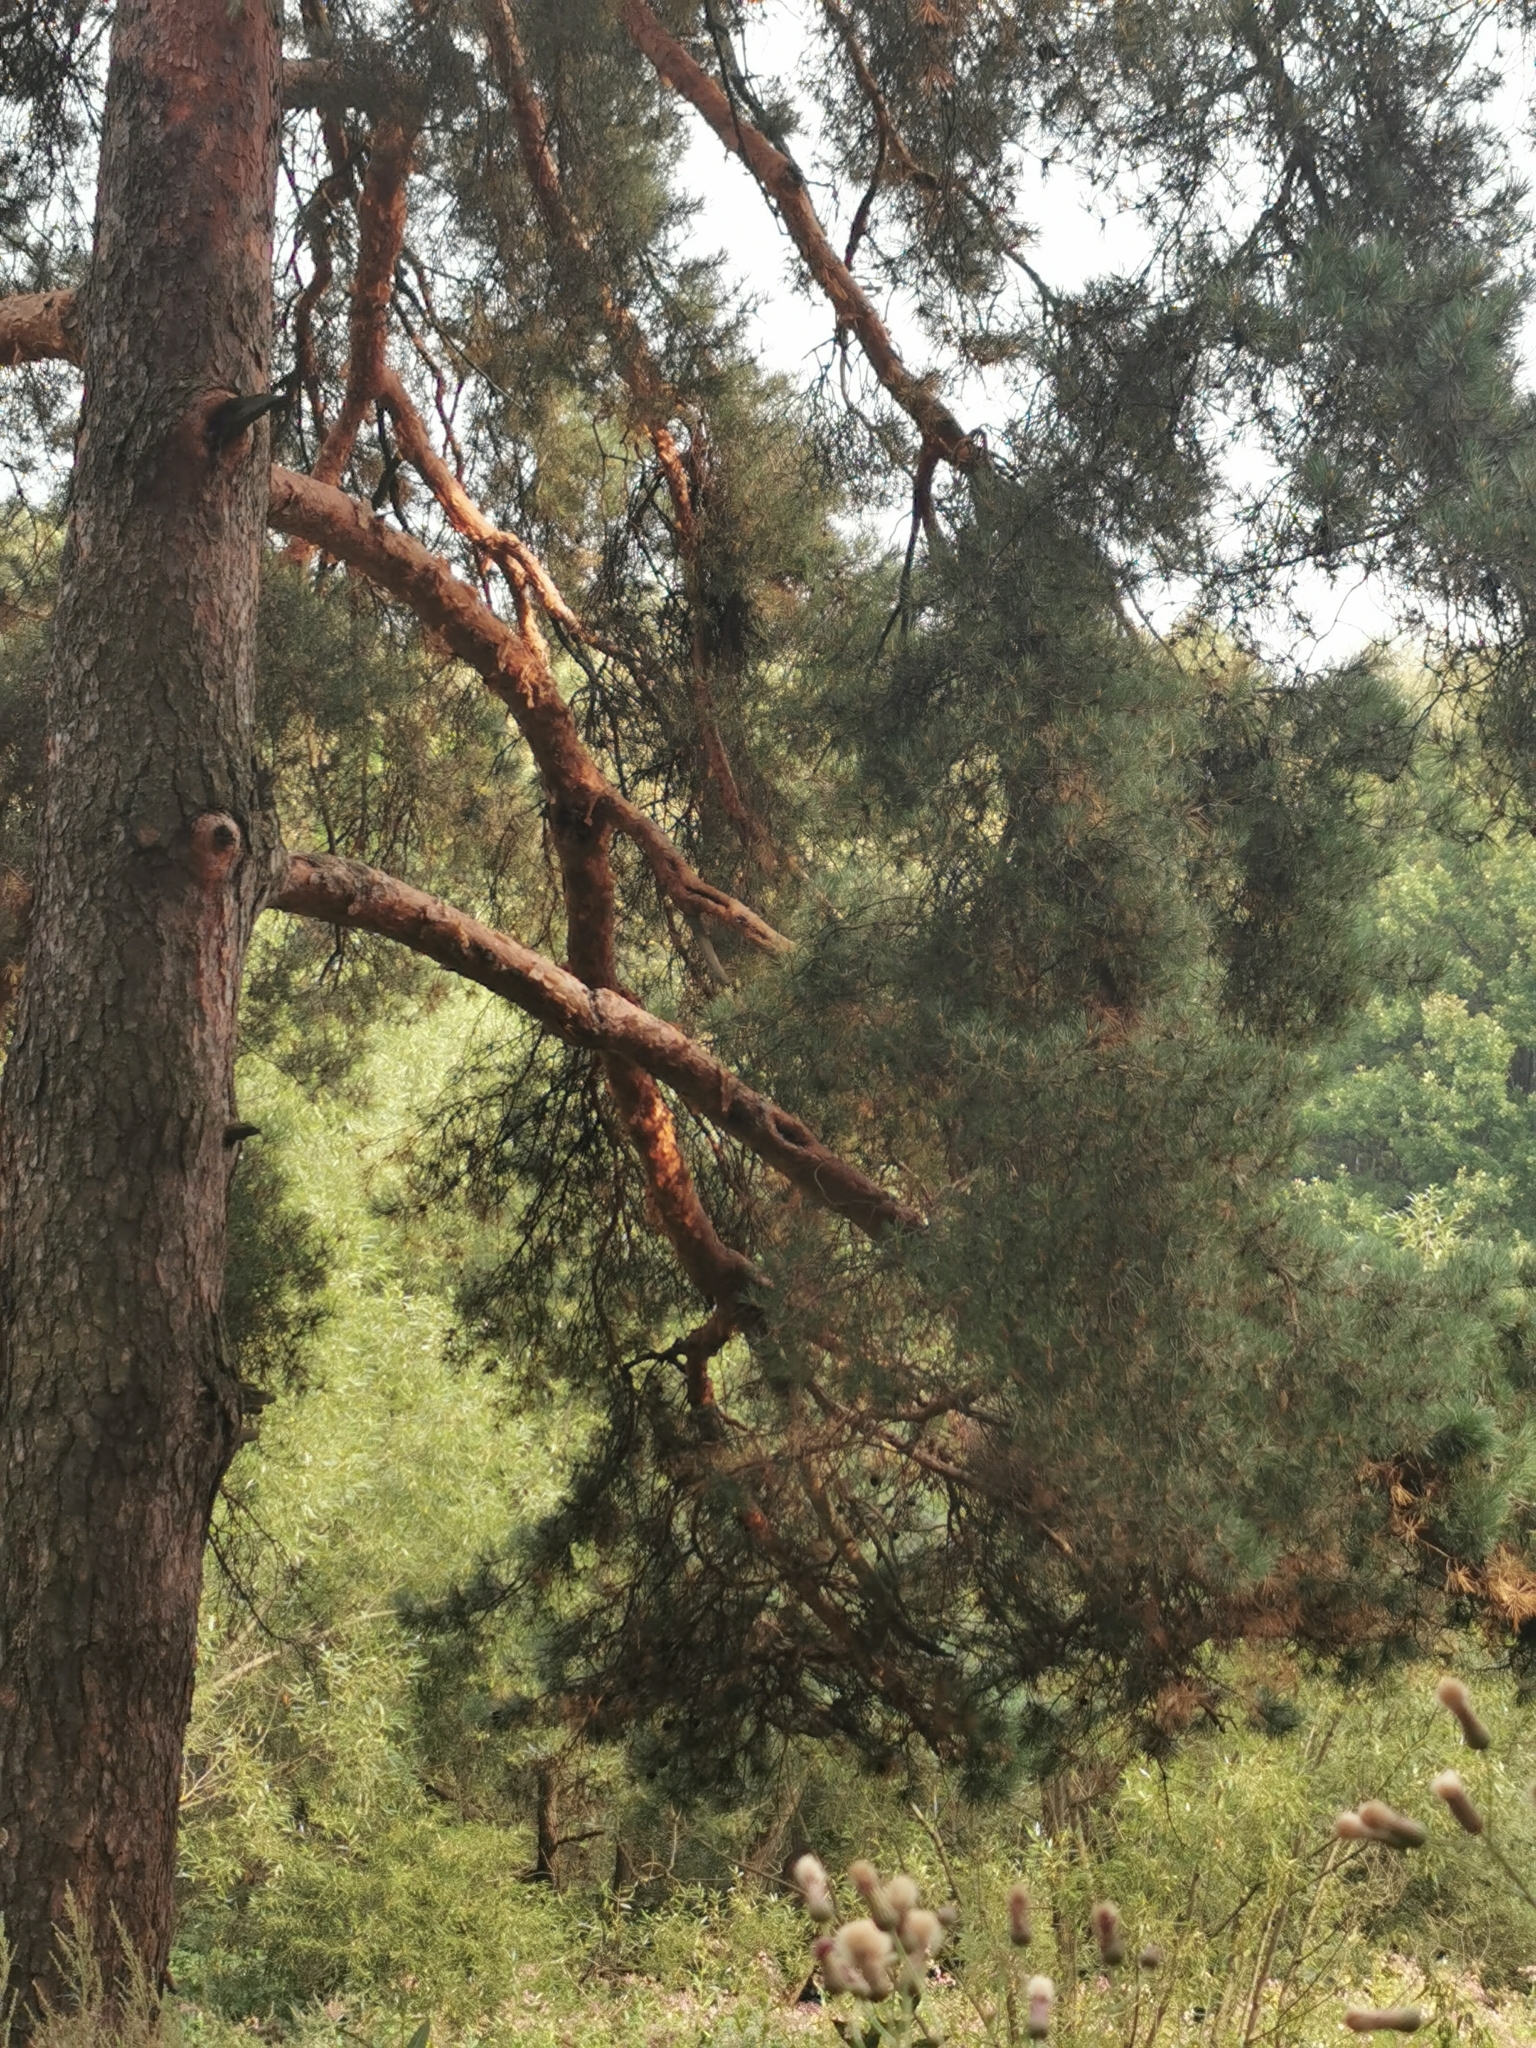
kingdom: Plantae
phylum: Tracheophyta
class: Pinopsida
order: Pinales
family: Pinaceae
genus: Pinus
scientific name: Pinus sylvestris
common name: Scots pine
